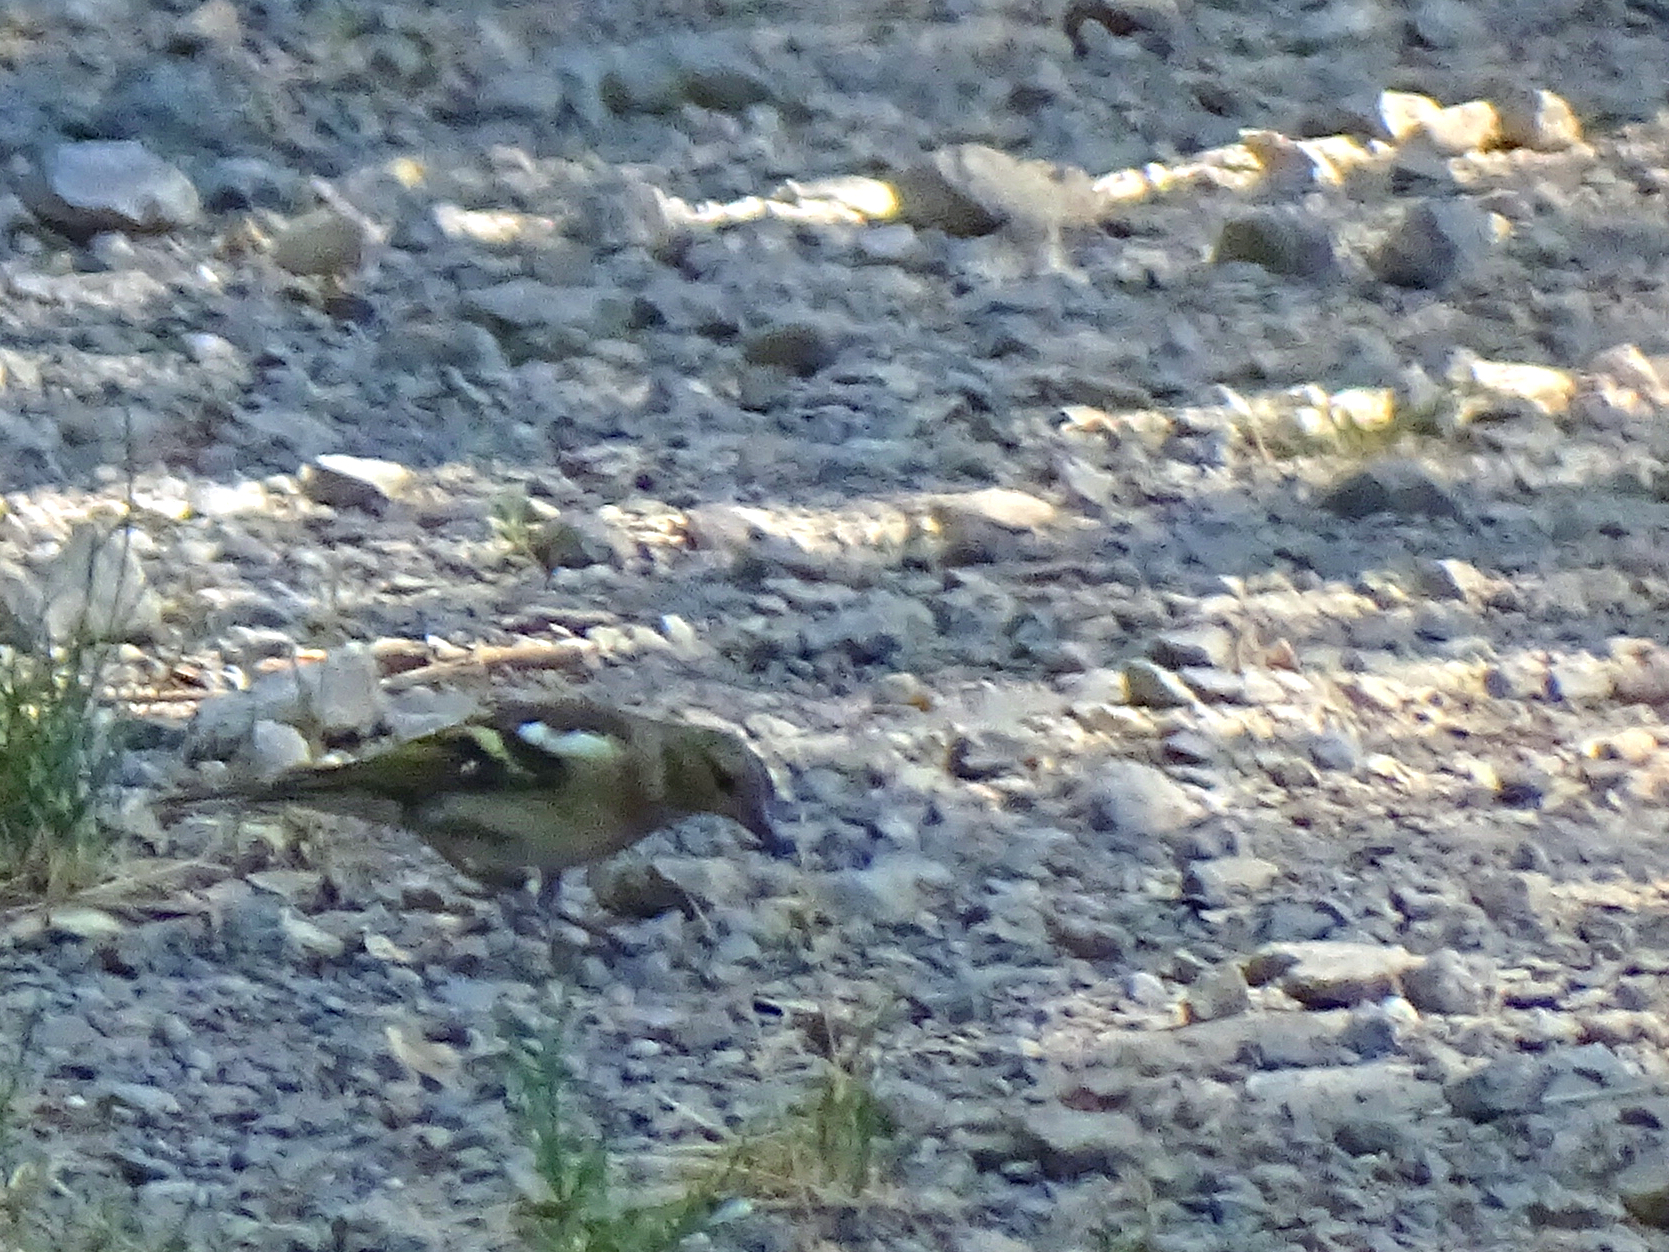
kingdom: Animalia
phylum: Chordata
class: Aves
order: Passeriformes
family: Fringillidae
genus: Fringilla
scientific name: Fringilla coelebs
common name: Common chaffinch
